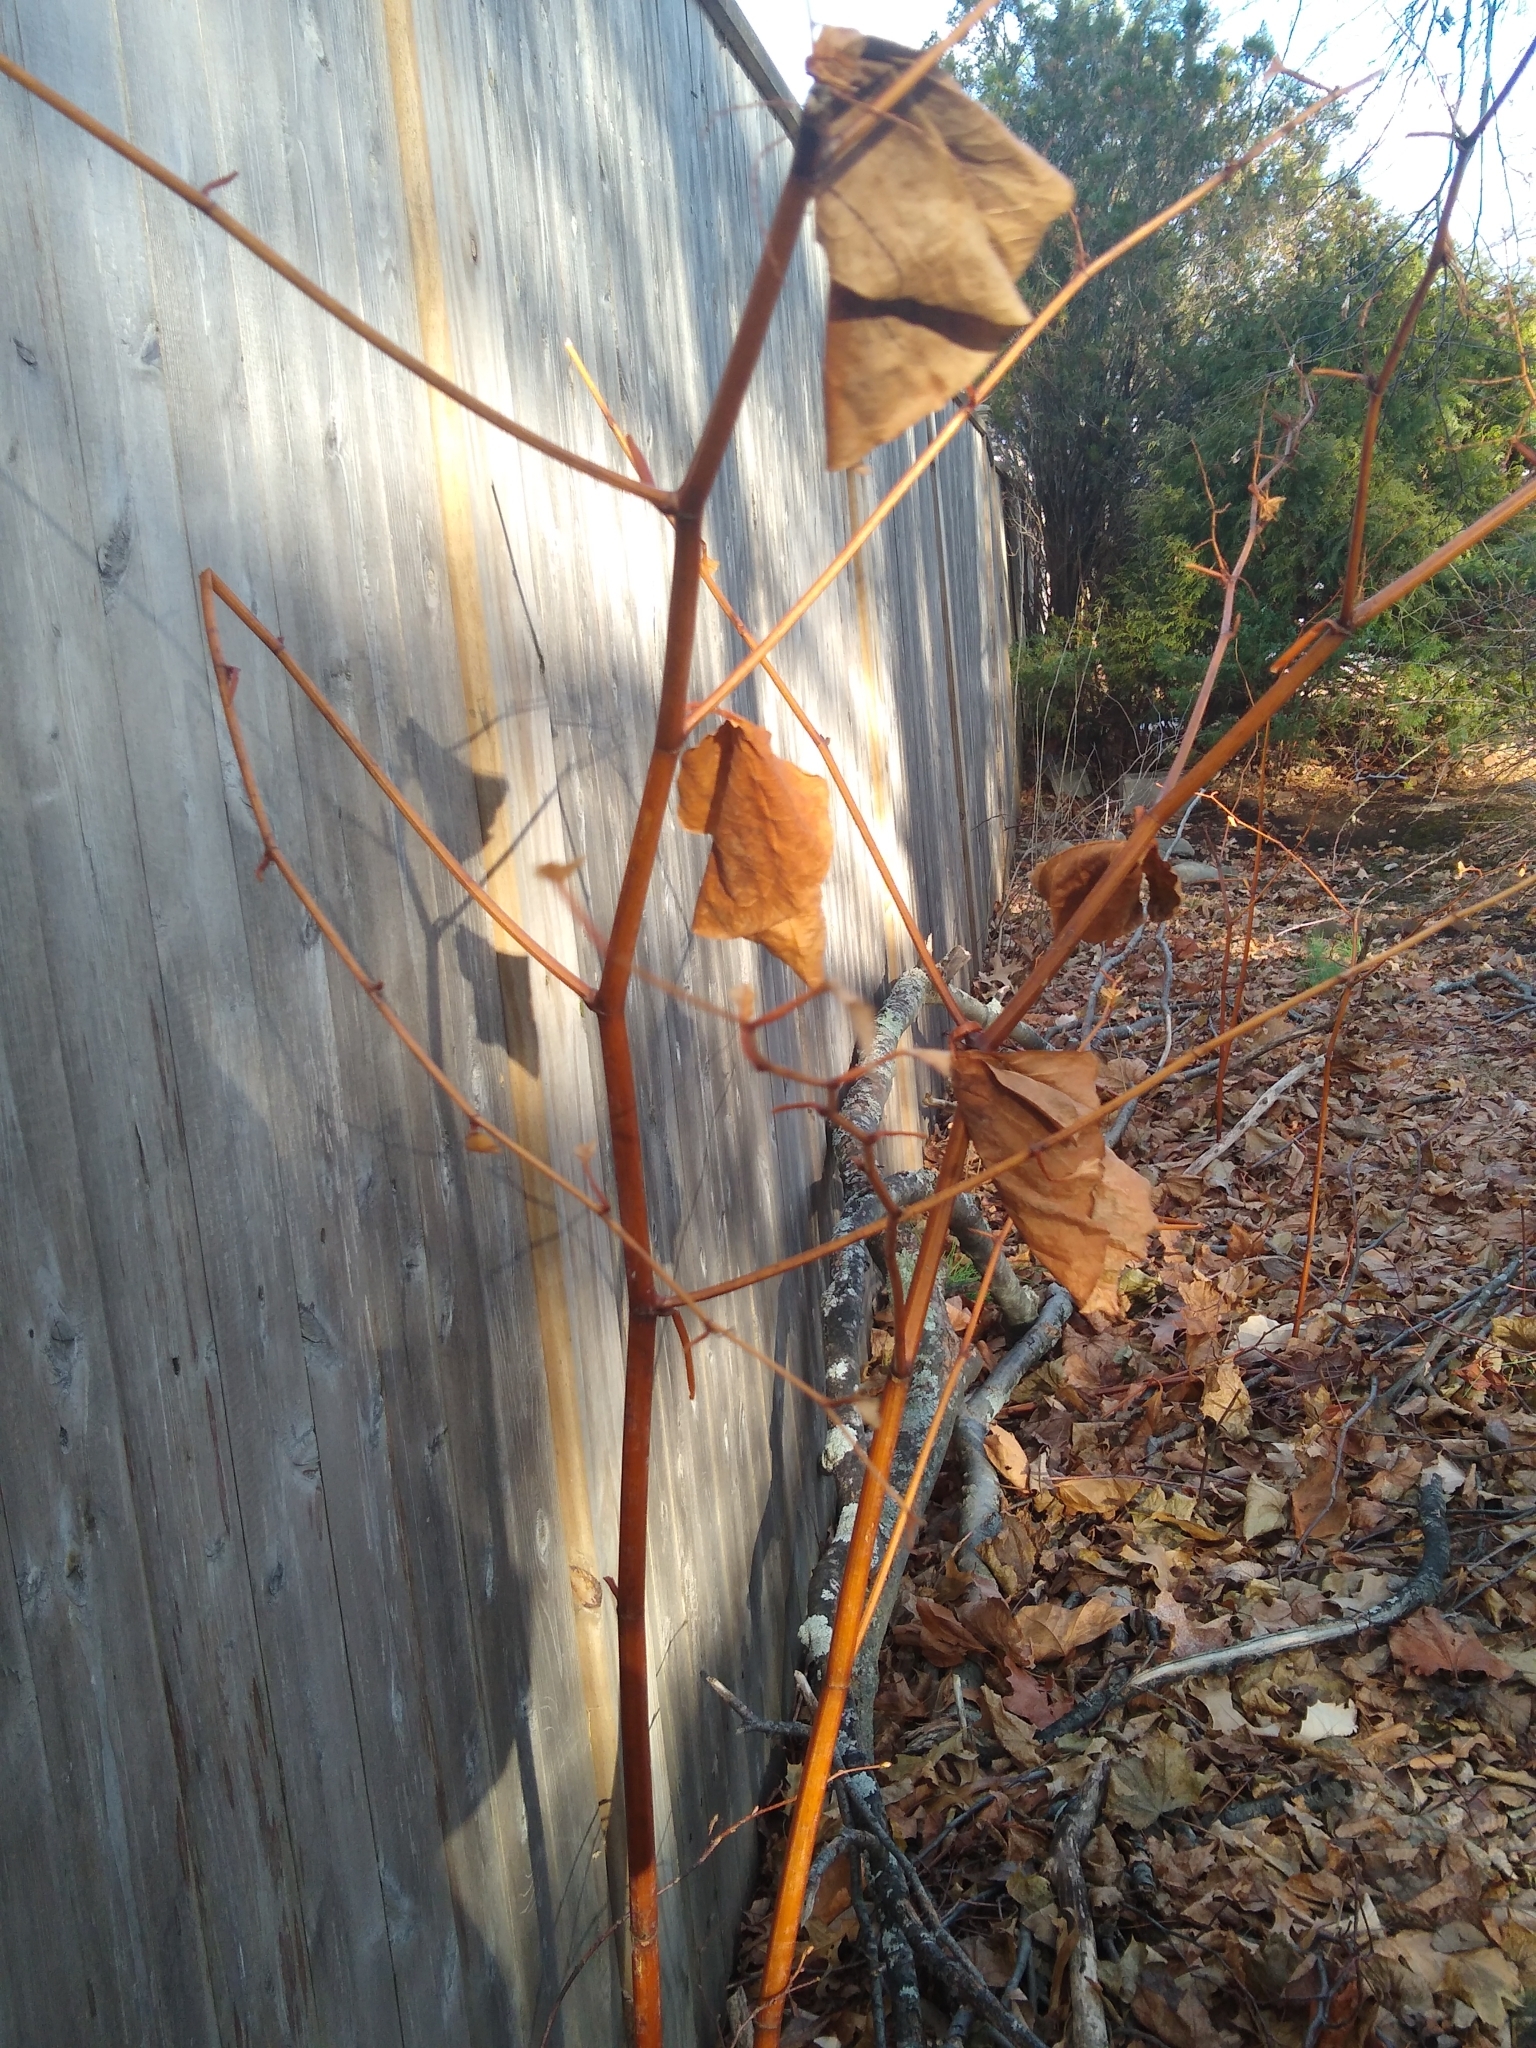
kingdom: Plantae
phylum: Tracheophyta
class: Magnoliopsida
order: Caryophyllales
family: Polygonaceae
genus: Reynoutria
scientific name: Reynoutria japonica
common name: Japanese knotweed
